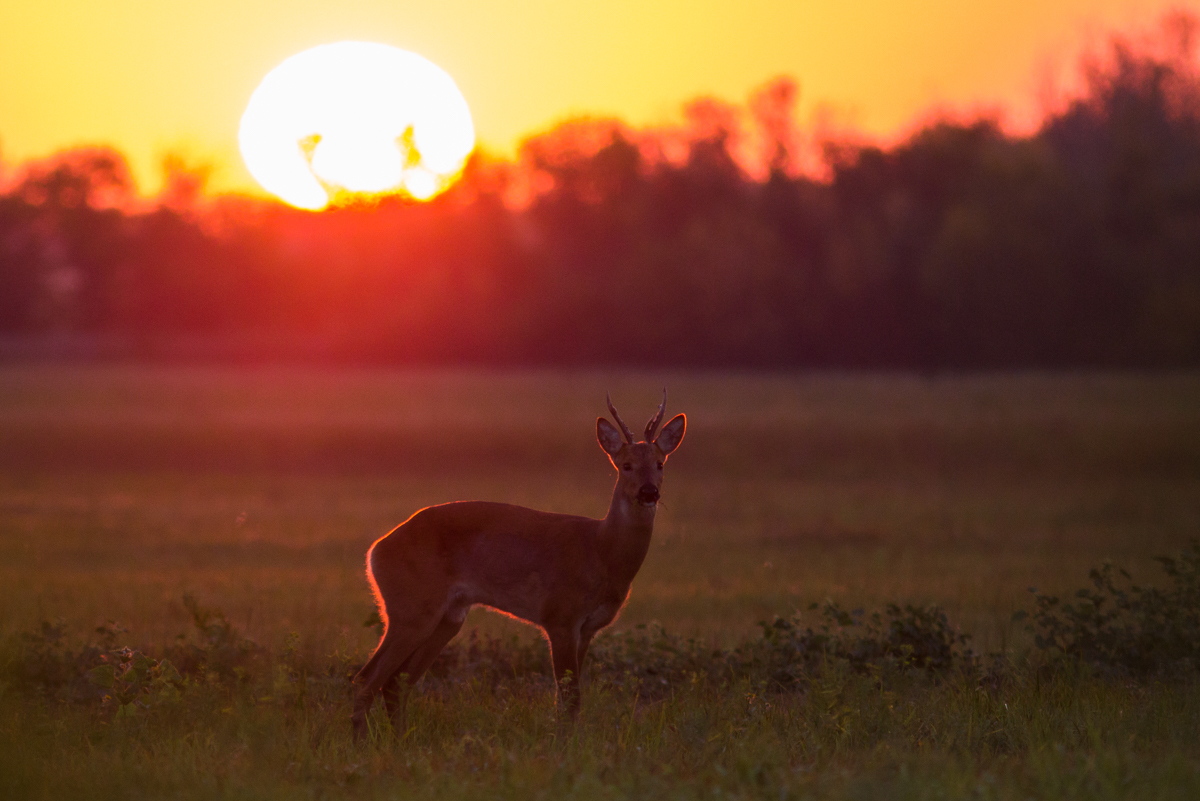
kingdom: Animalia
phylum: Chordata
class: Mammalia
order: Artiodactyla
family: Cervidae
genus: Capreolus
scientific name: Capreolus pygargus
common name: Siberian roe
